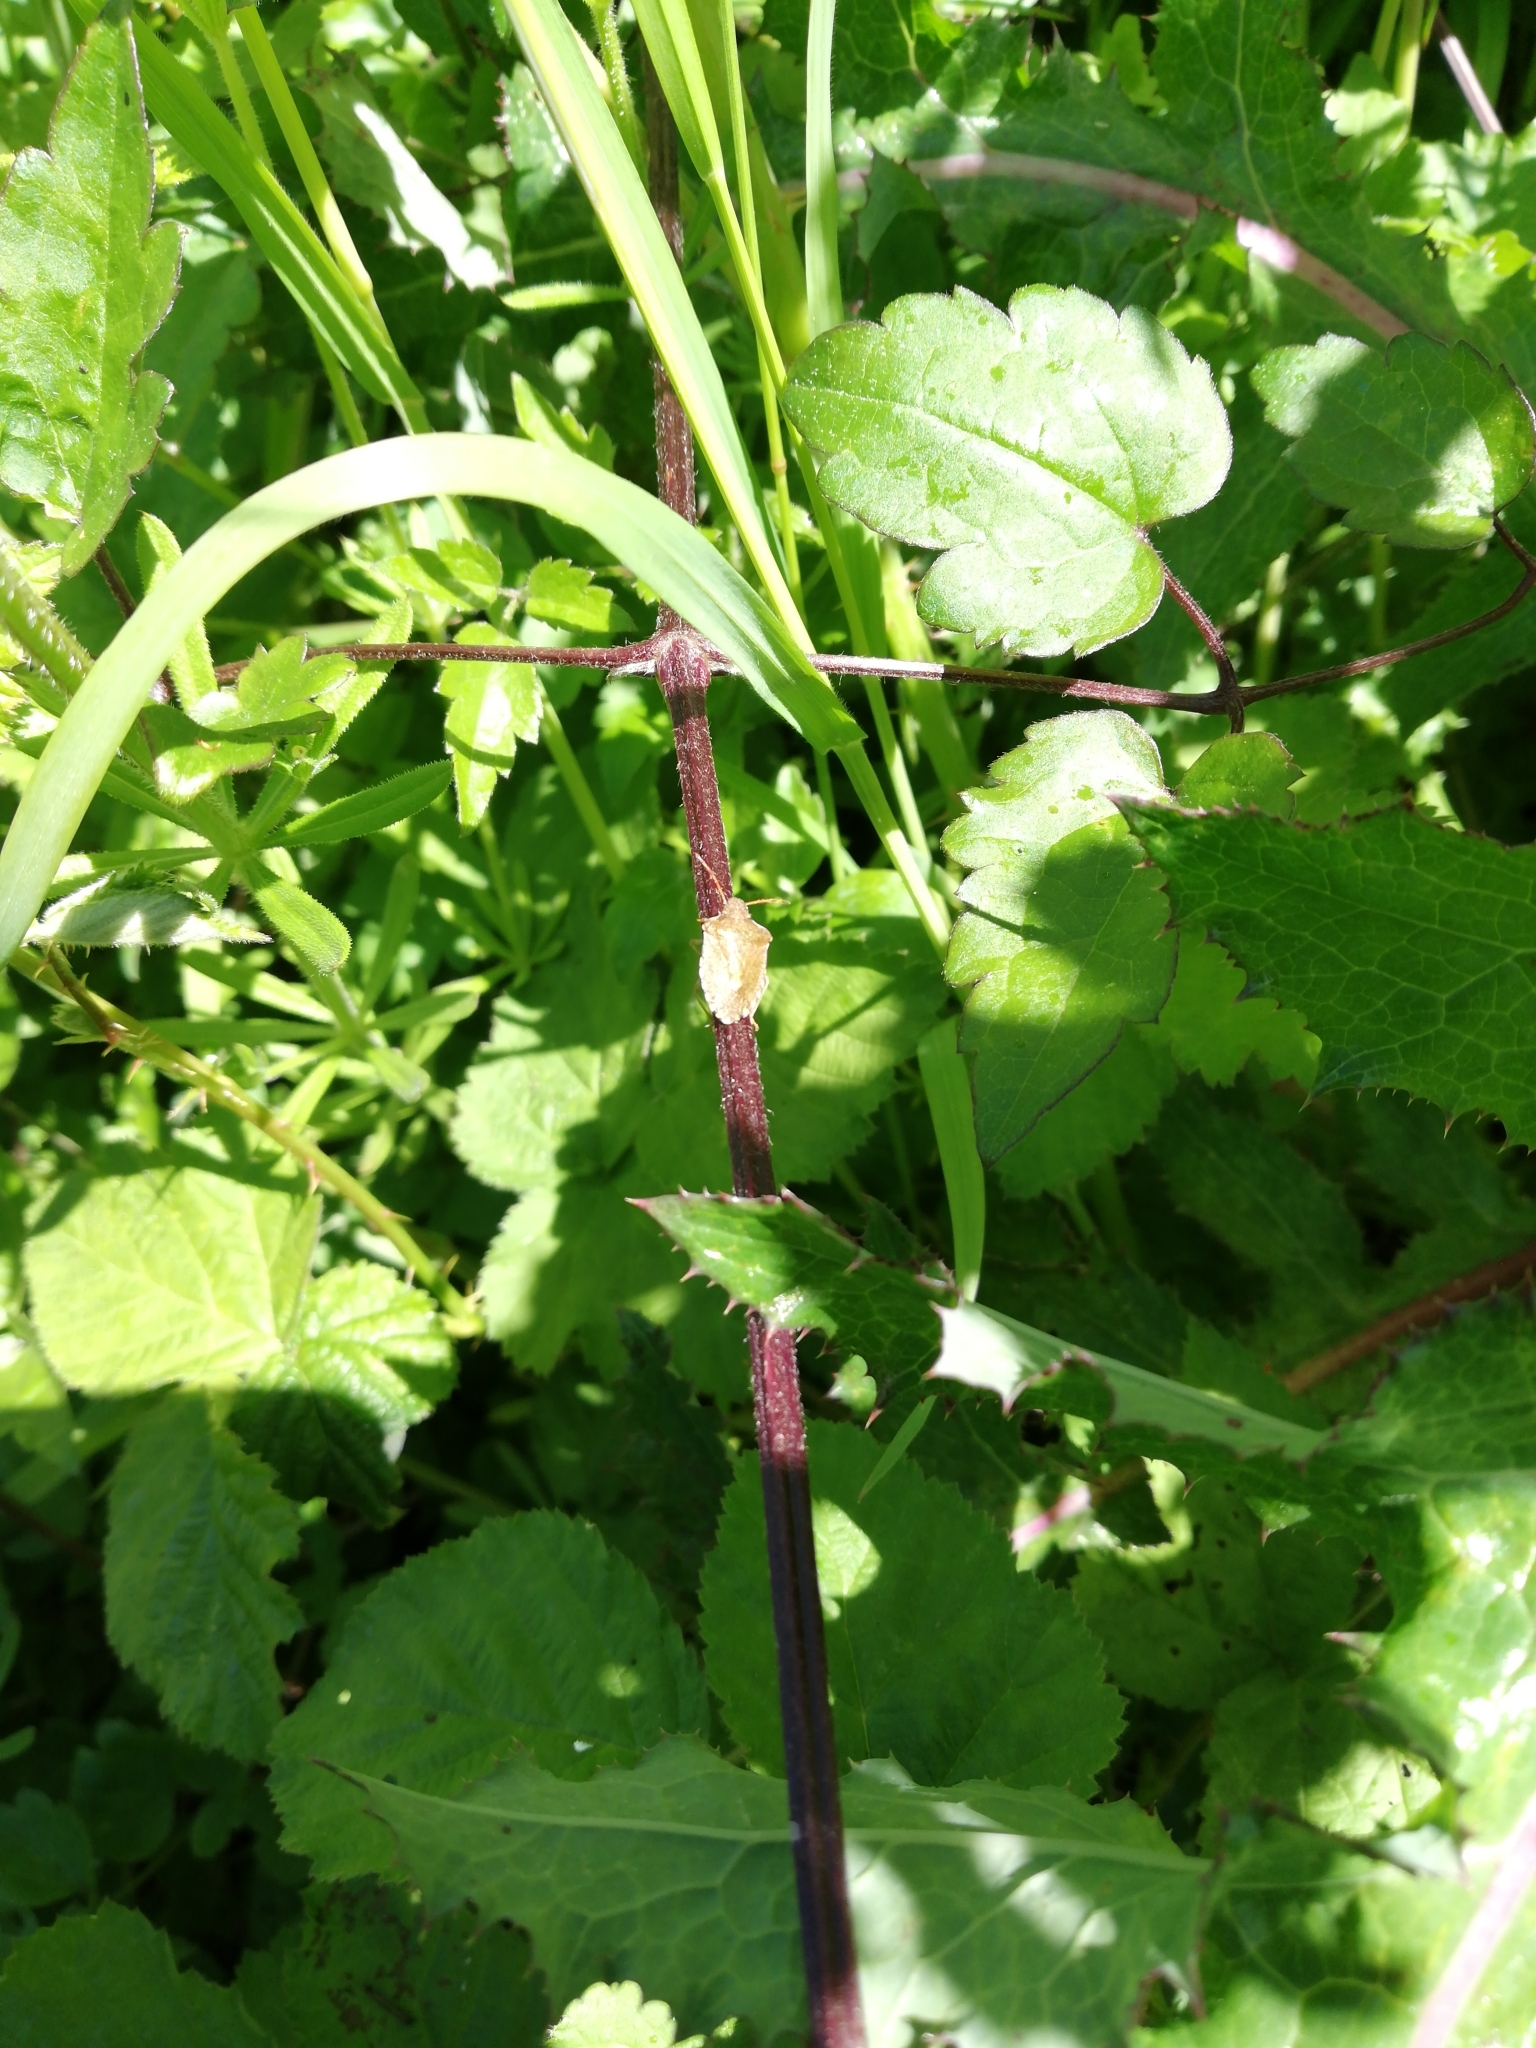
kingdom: Animalia
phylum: Arthropoda
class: Insecta
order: Hemiptera
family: Pentatomidae
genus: Holcostethus
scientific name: Holcostethus strictus
